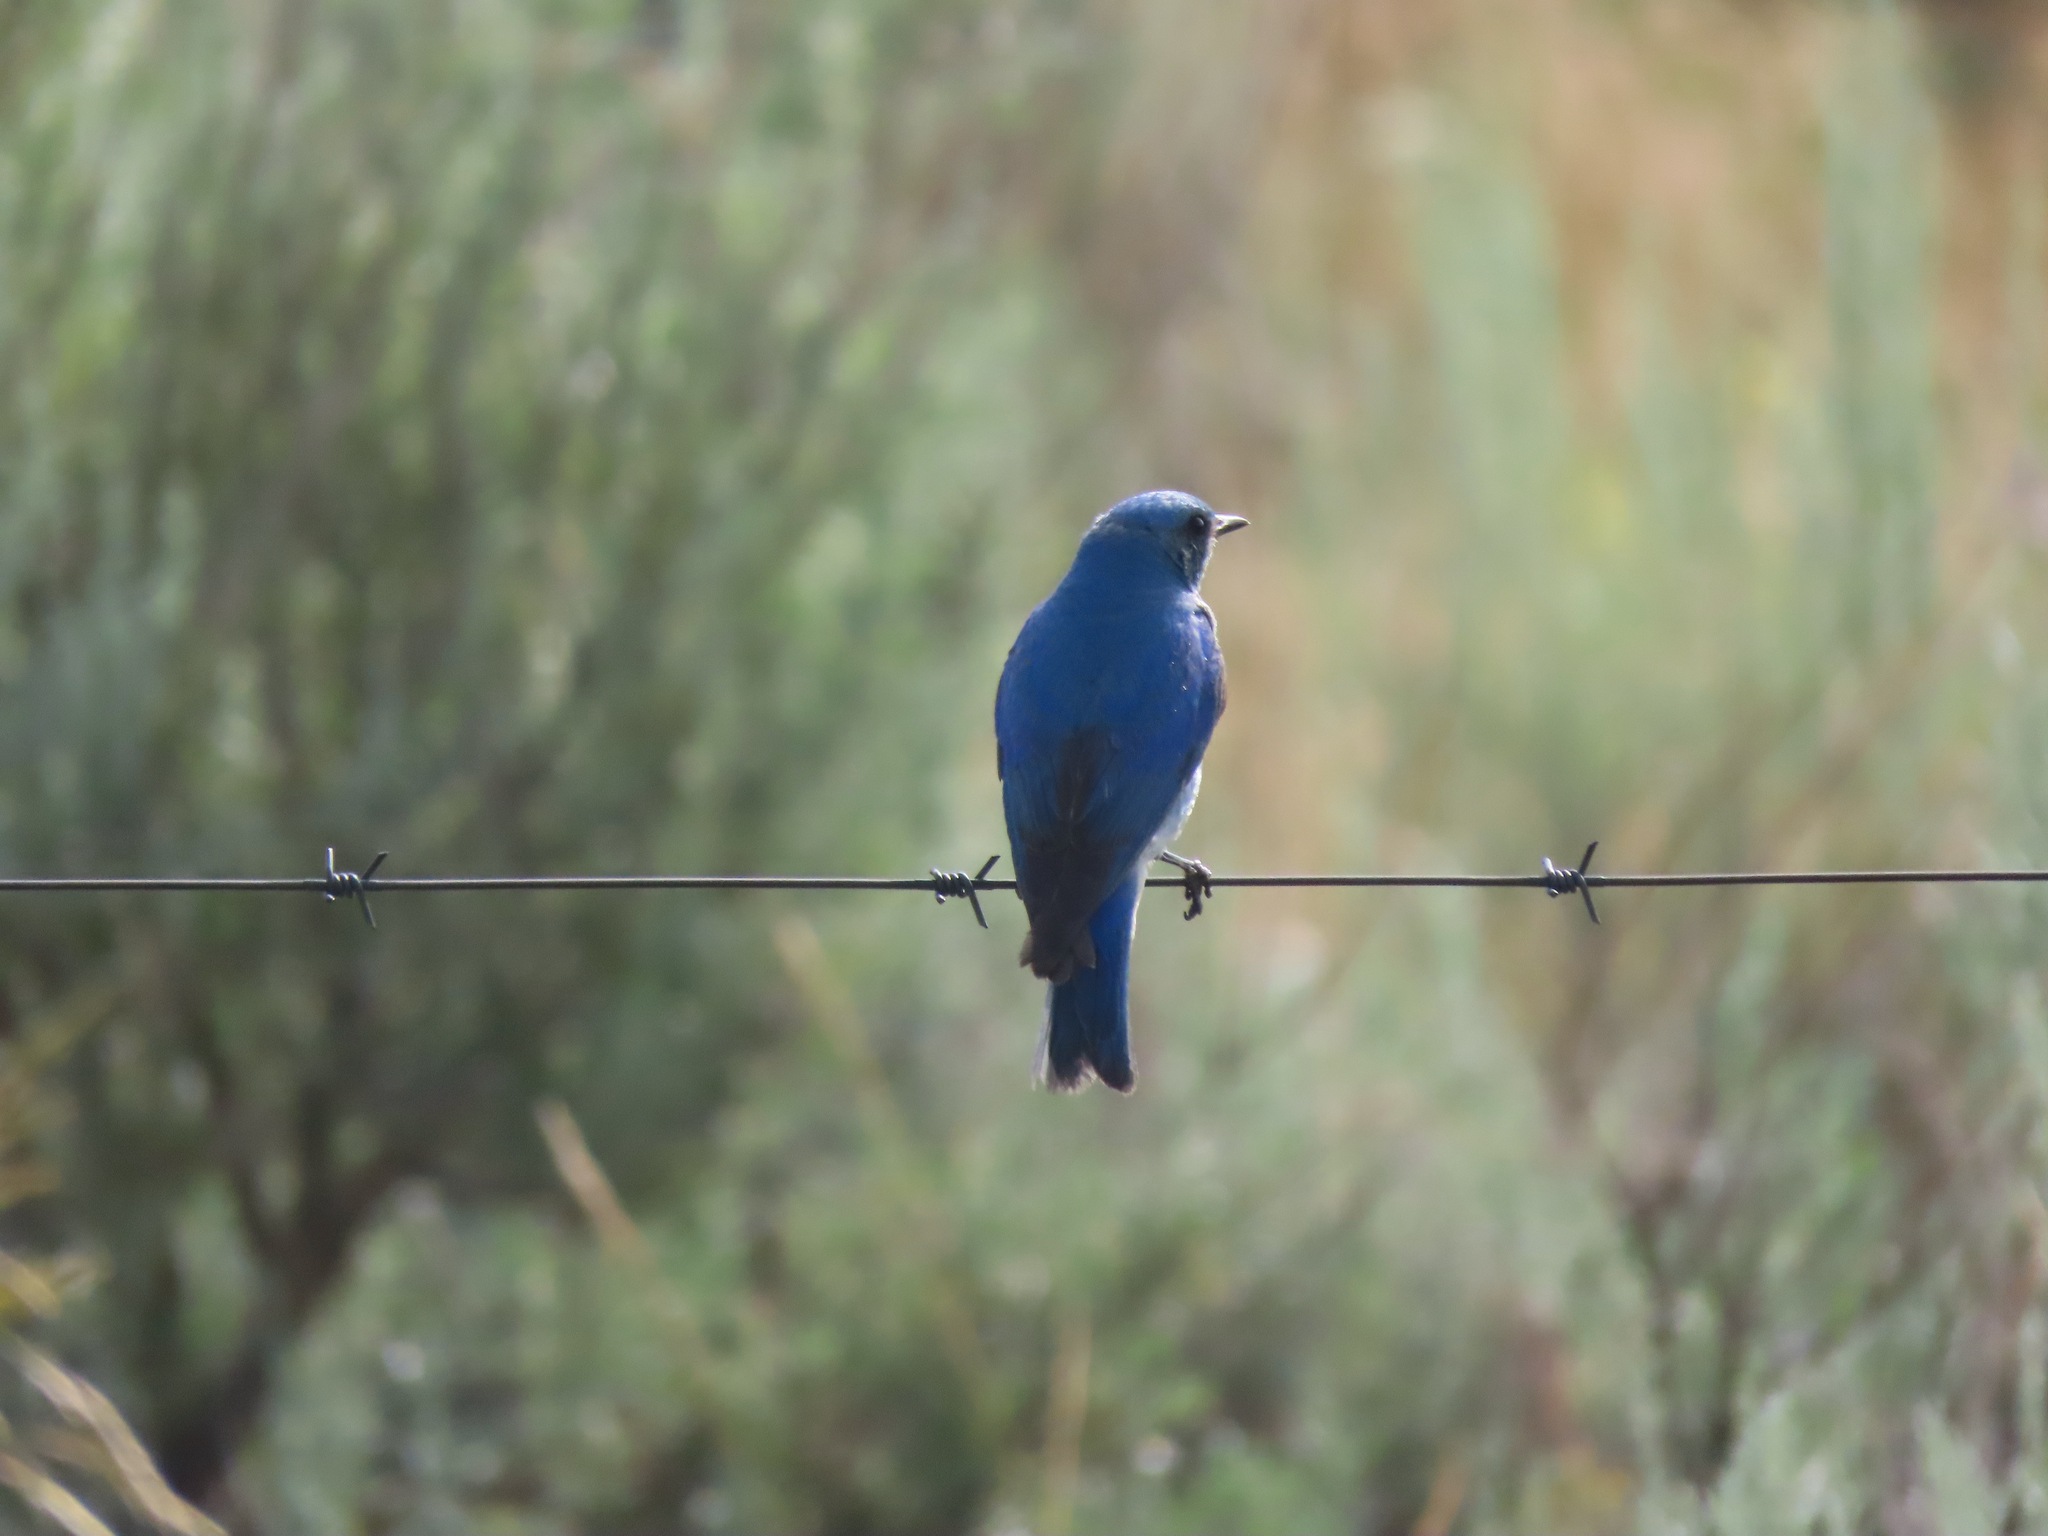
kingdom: Animalia
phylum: Chordata
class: Aves
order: Passeriformes
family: Turdidae
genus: Sialia
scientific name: Sialia currucoides
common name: Mountain bluebird
